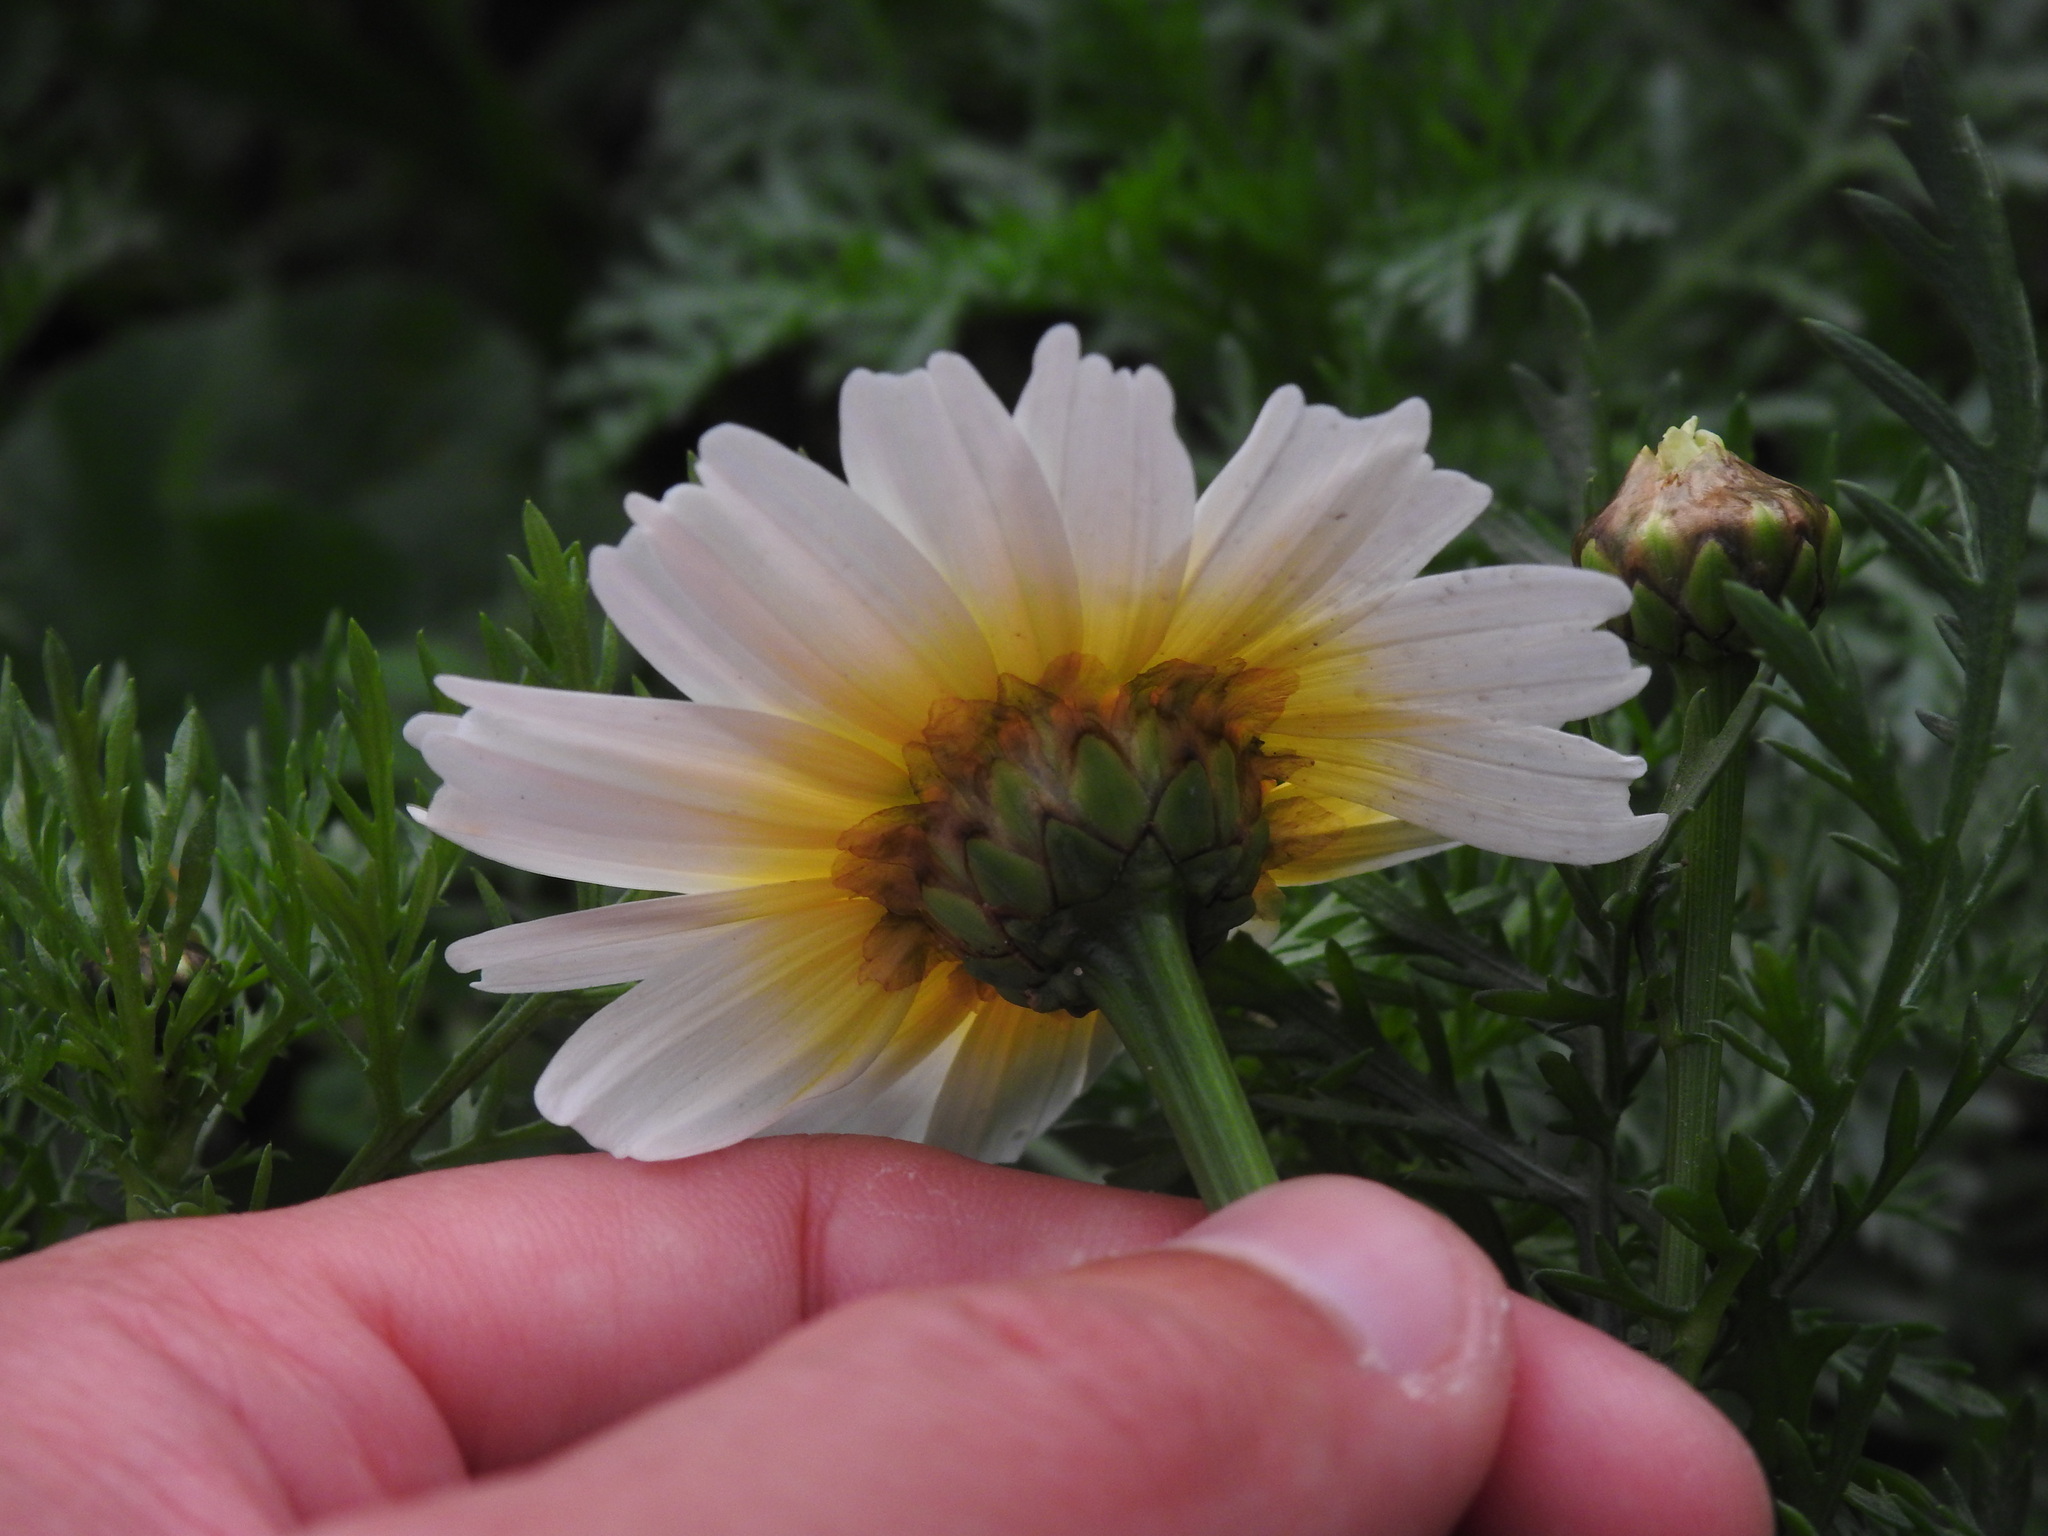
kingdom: Plantae
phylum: Tracheophyta
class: Magnoliopsida
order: Asterales
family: Asteraceae
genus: Glebionis
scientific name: Glebionis coronaria
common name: Crowndaisy
